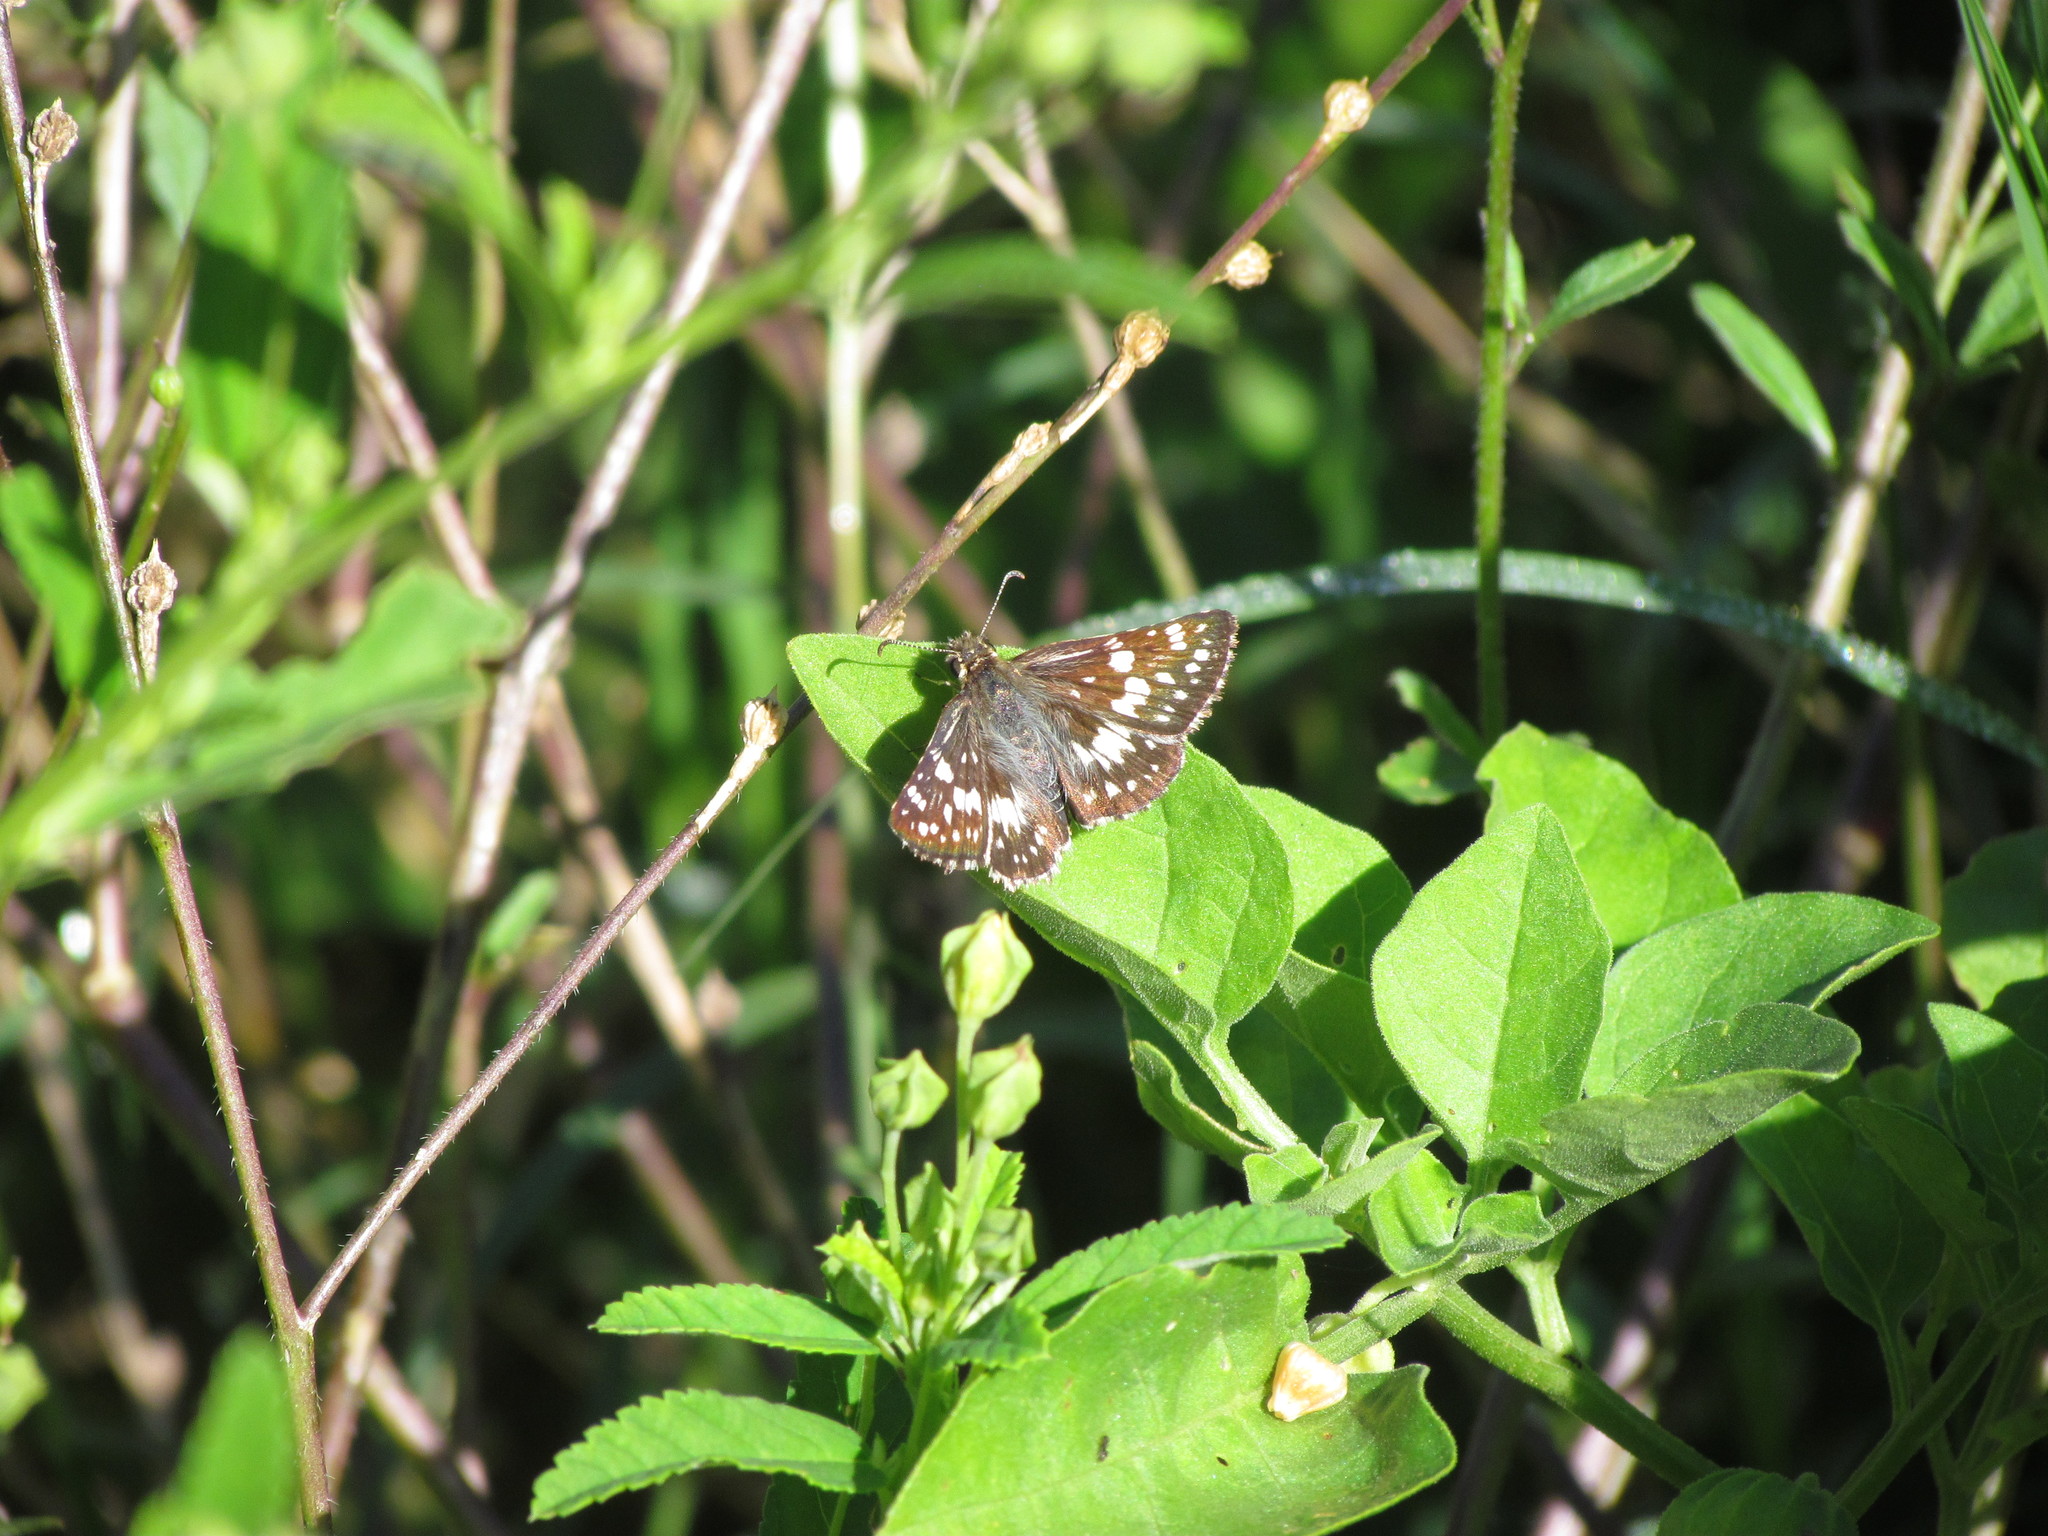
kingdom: Animalia
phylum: Arthropoda
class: Insecta
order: Lepidoptera
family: Hesperiidae
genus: Burnsius
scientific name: Burnsius orcynoides
